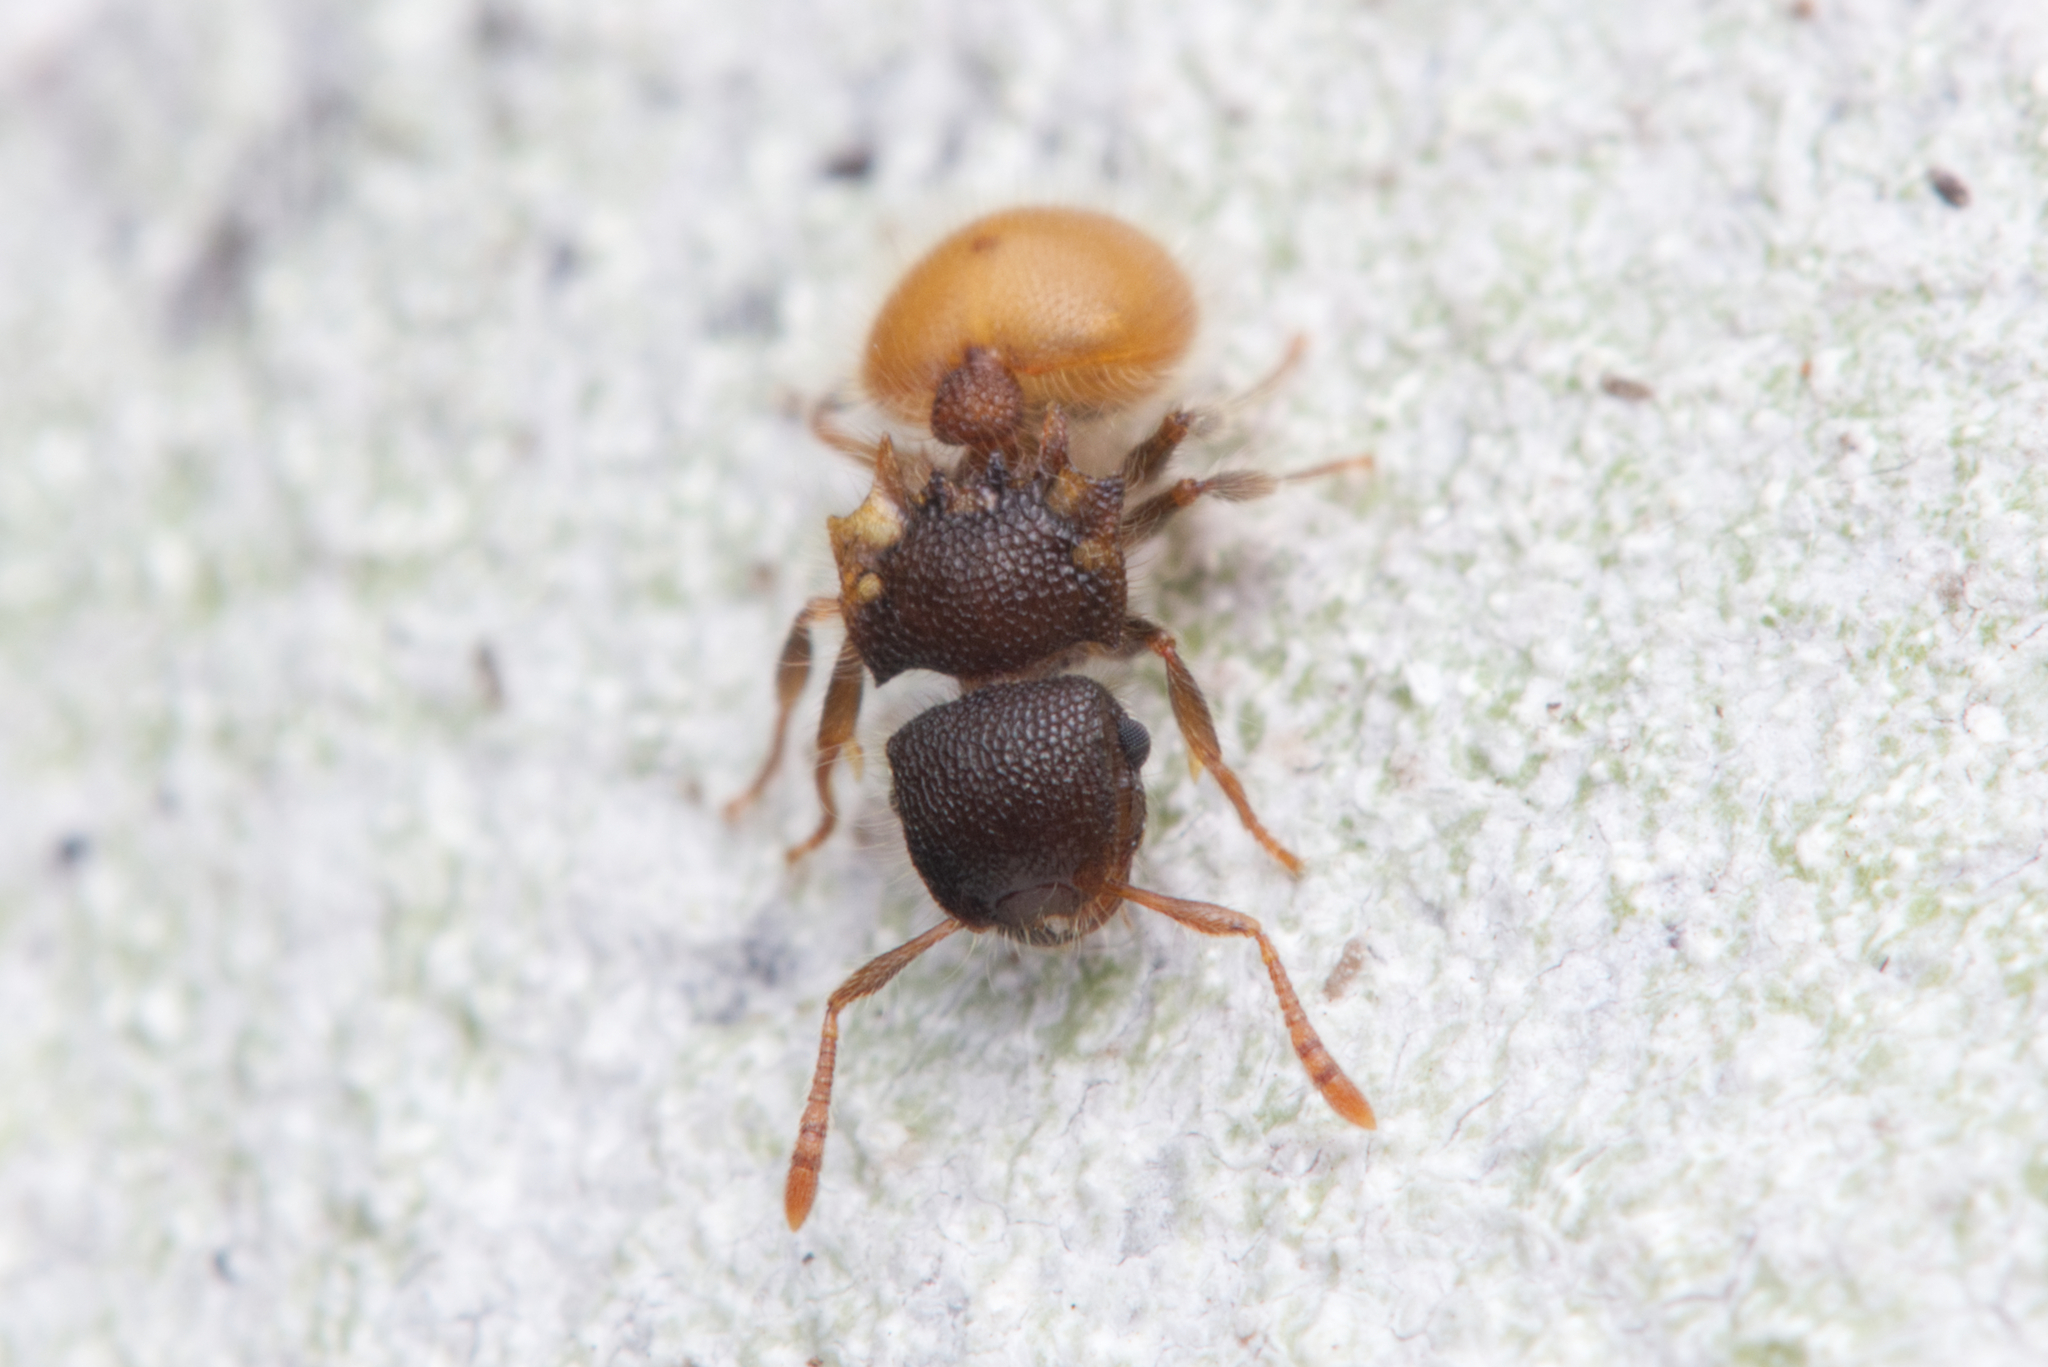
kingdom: Animalia
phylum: Arthropoda
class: Insecta
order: Hymenoptera
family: Formicidae
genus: Meranoplus
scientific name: Meranoplus hirsutus
